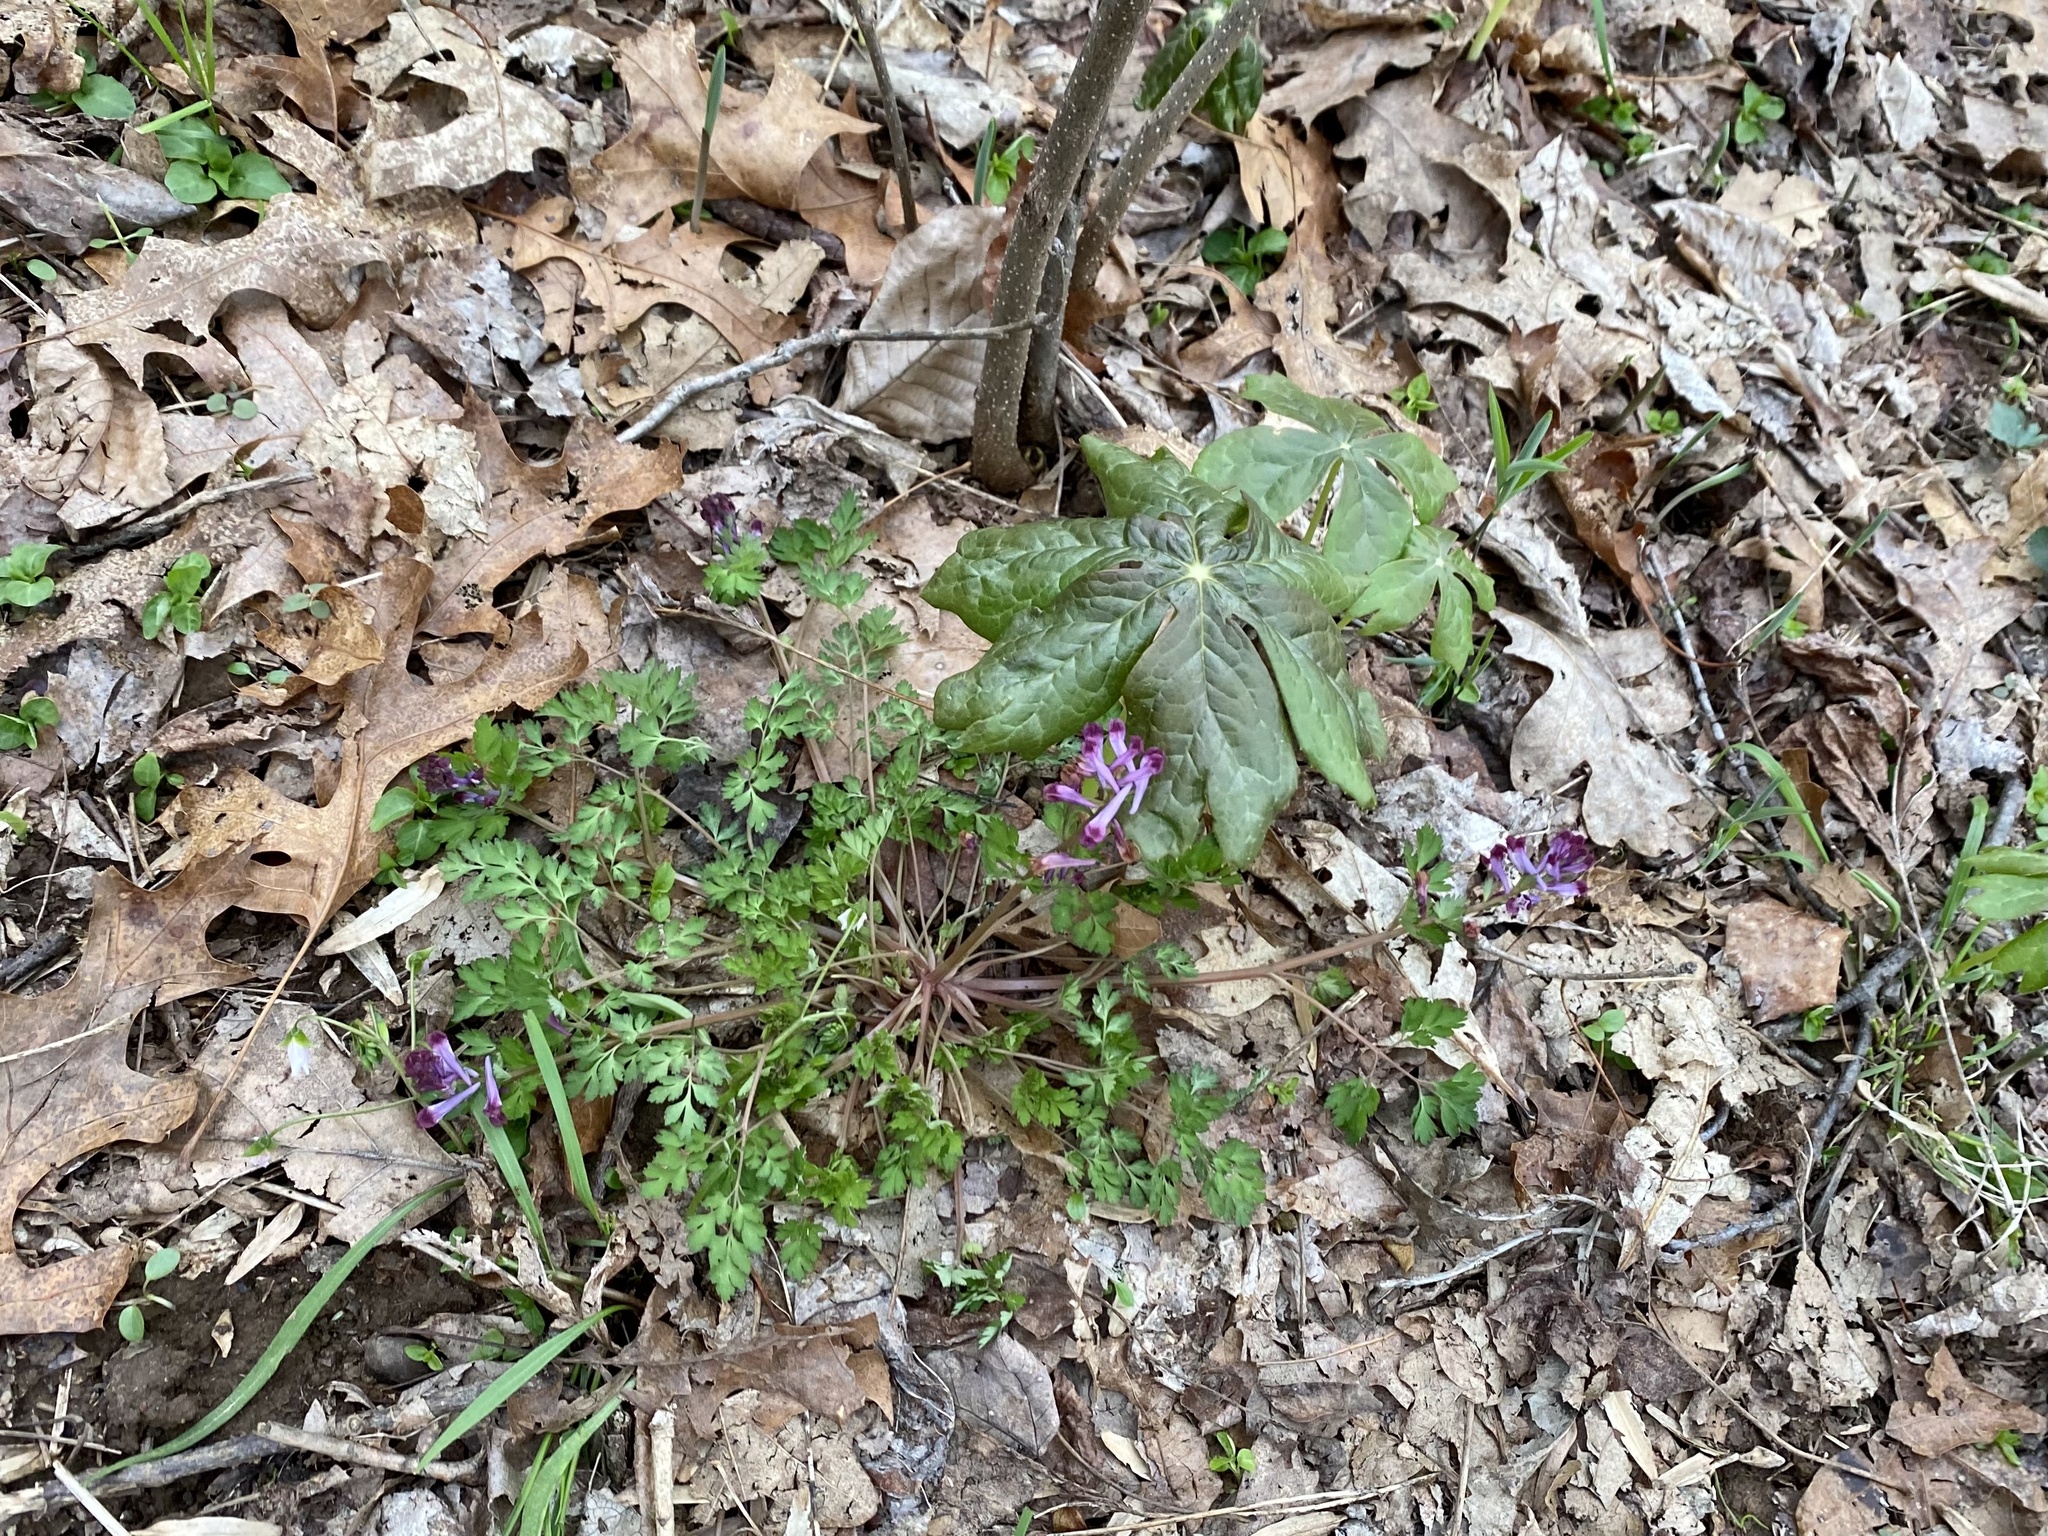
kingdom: Plantae
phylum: Tracheophyta
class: Magnoliopsida
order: Ranunculales
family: Berberidaceae
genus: Podophyllum
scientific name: Podophyllum peltatum
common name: Wild mandrake
